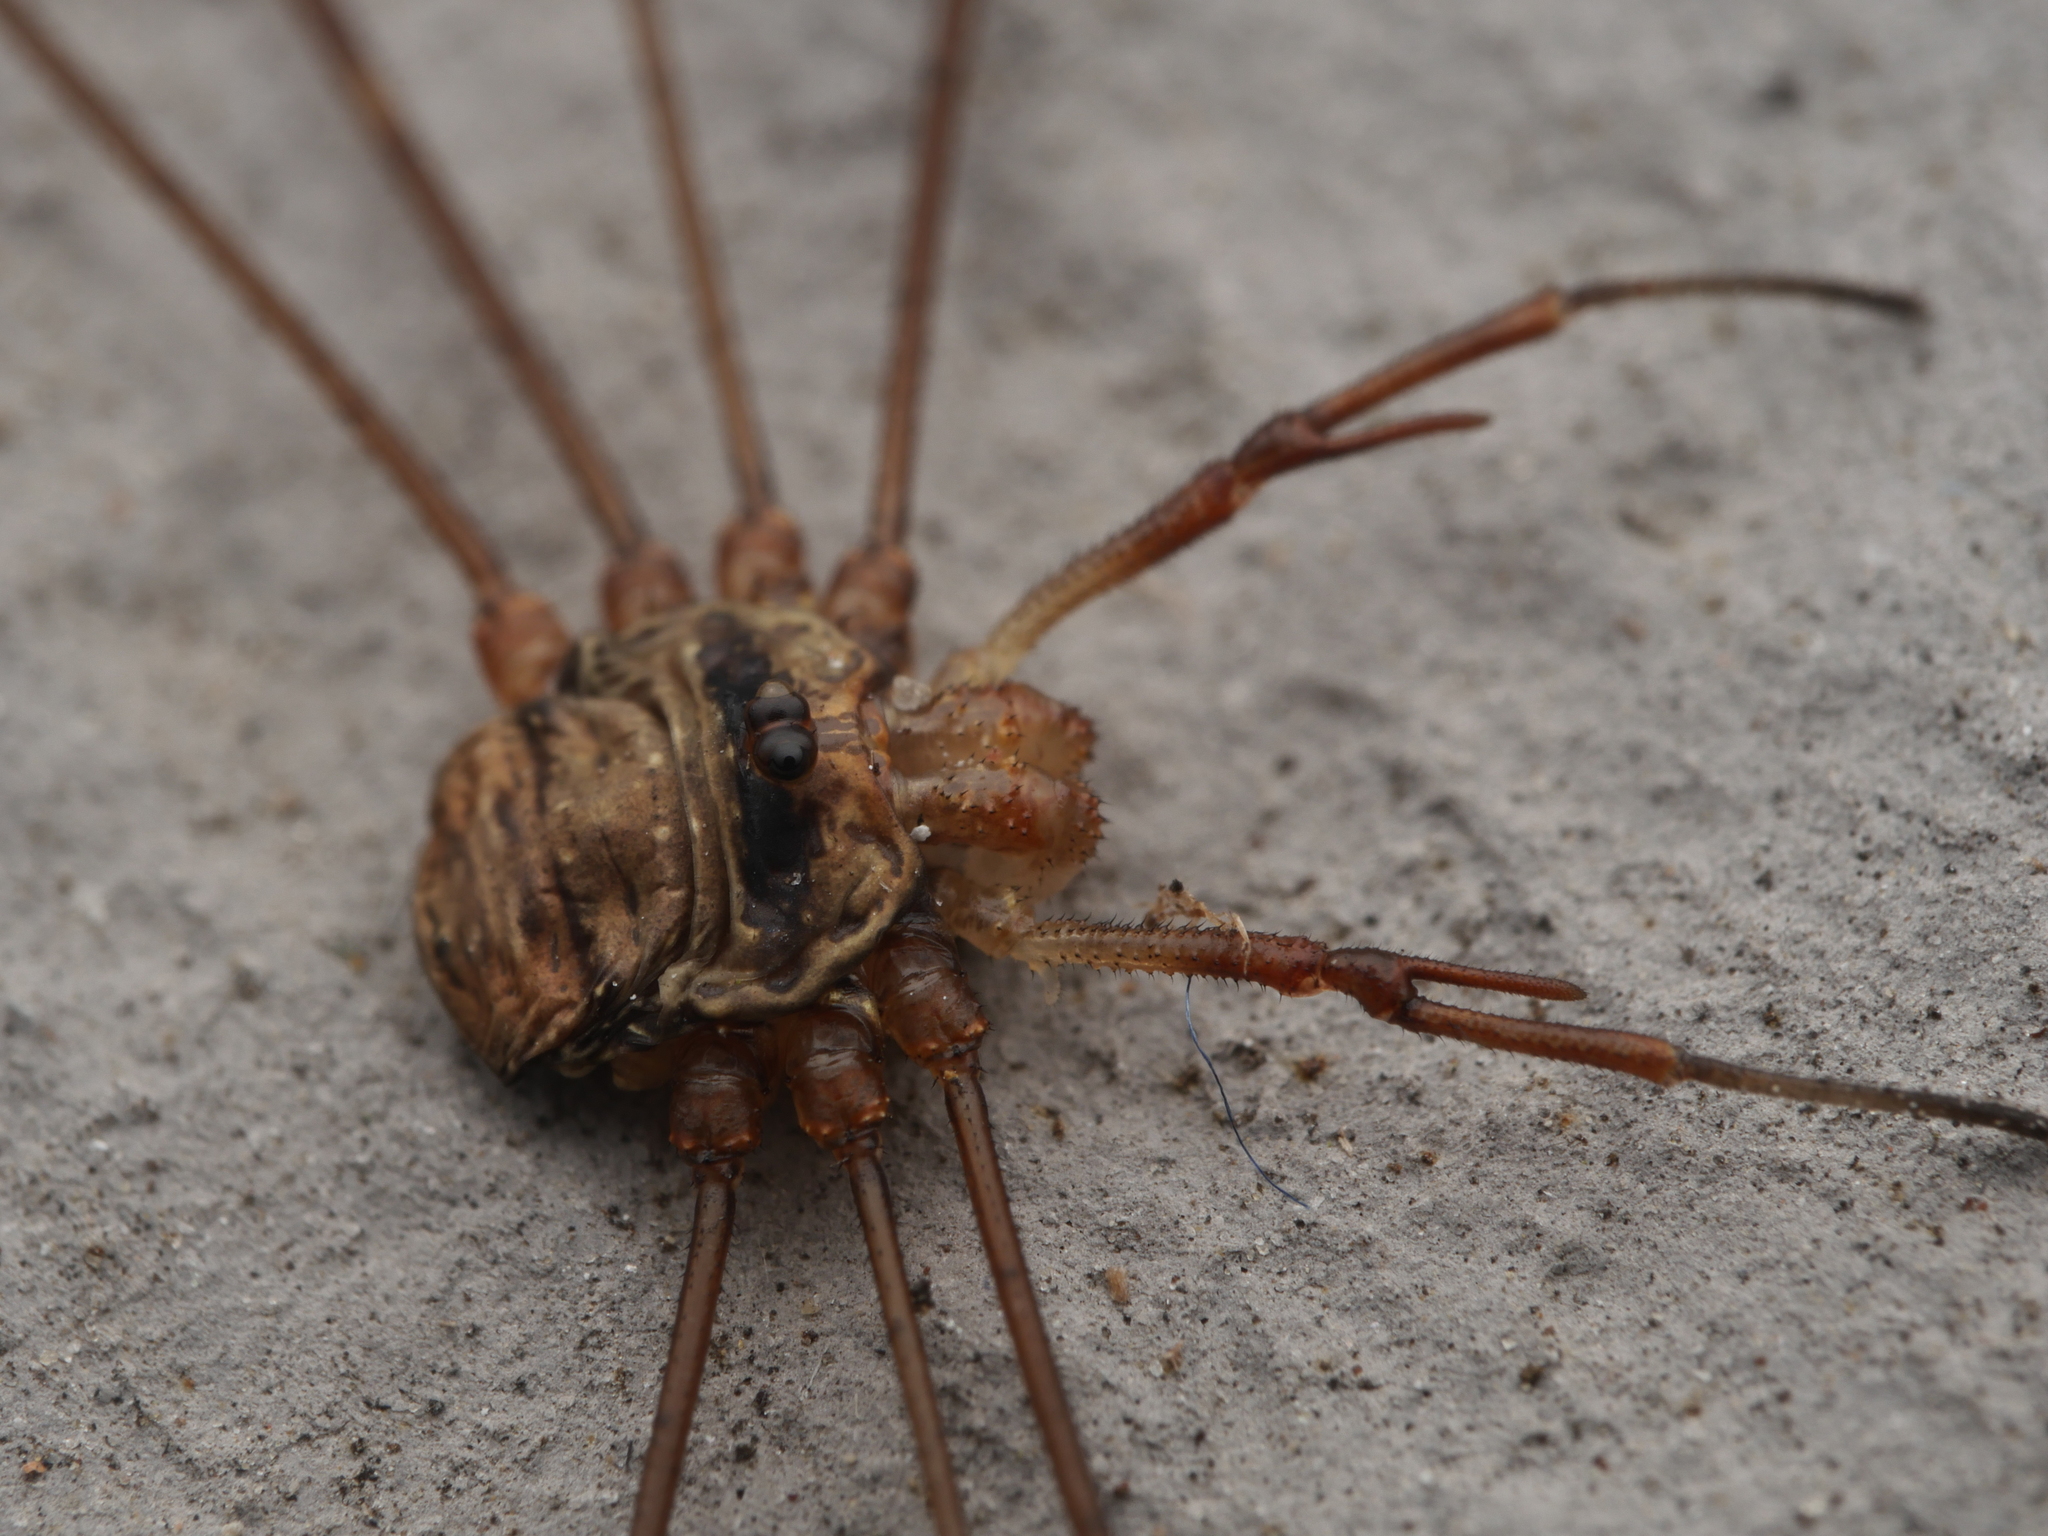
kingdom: Animalia
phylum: Arthropoda
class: Arachnida
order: Opiliones
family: Phalangiidae
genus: Dicranopalpus
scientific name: Dicranopalpus ramosus
